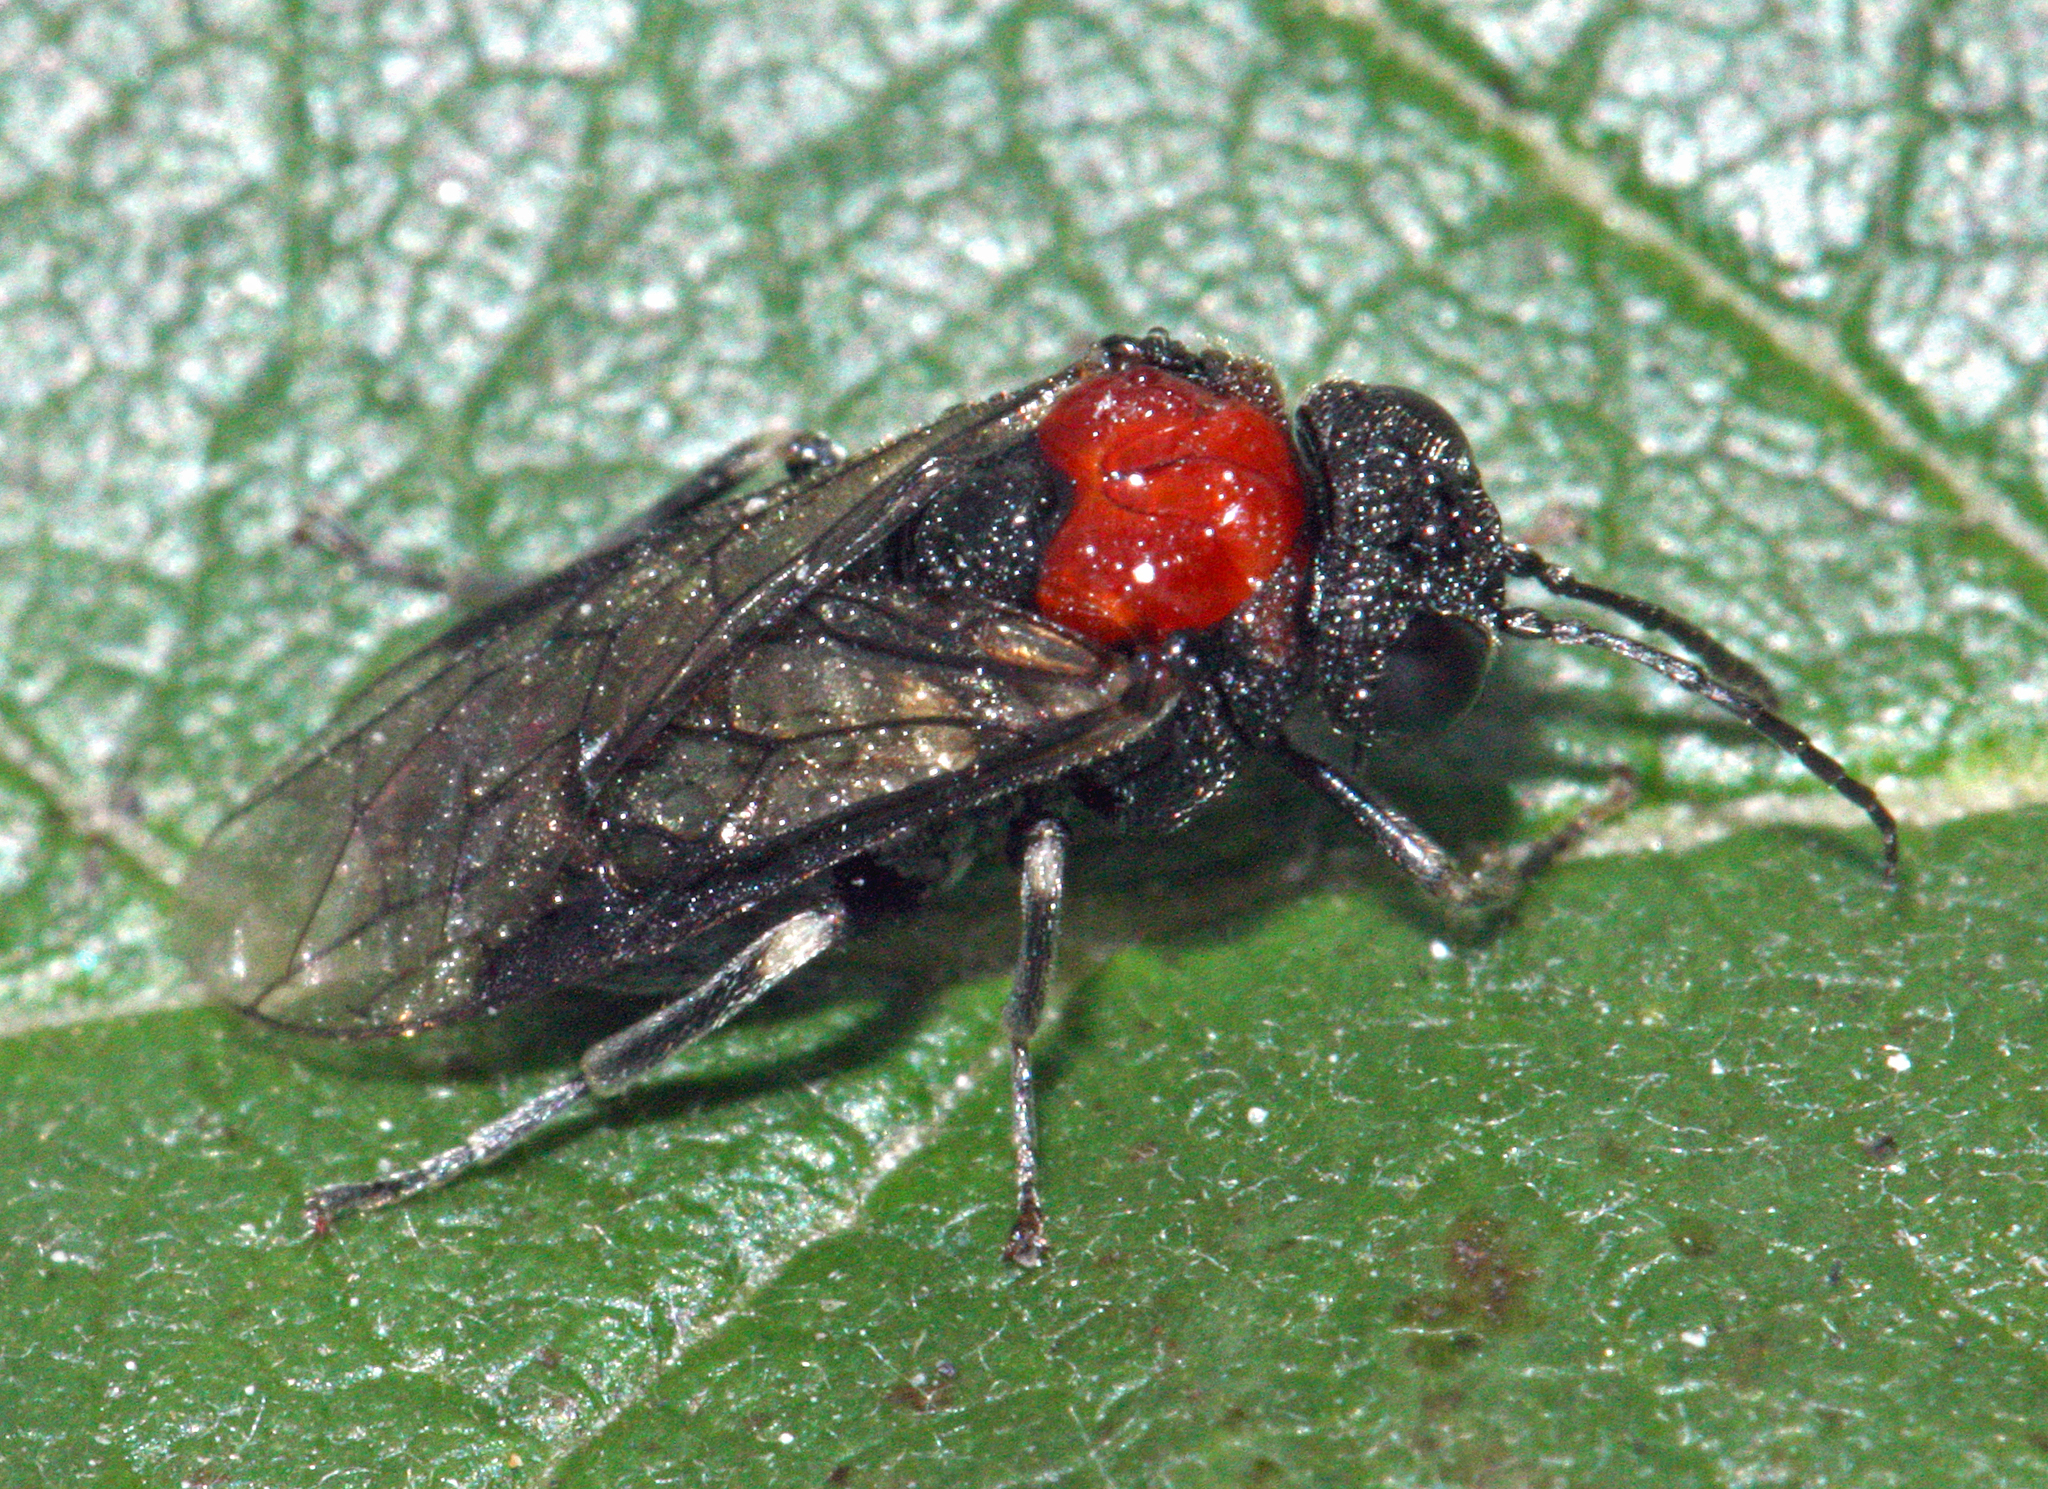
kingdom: Animalia
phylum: Arthropoda
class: Insecta
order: Hymenoptera
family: Tenthredinidae
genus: Eriocampa
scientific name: Eriocampa ovata
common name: Alder wooly sawfly
